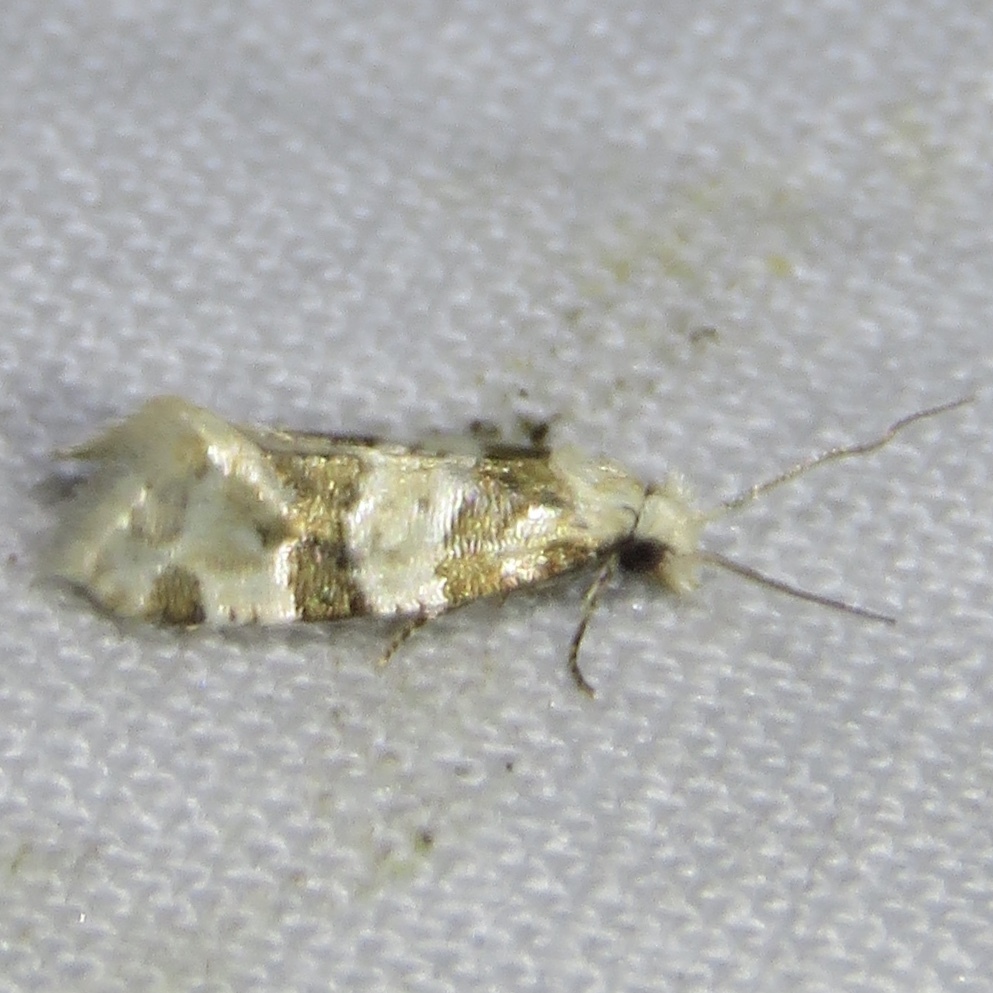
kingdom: Animalia
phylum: Arthropoda
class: Insecta
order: Lepidoptera
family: Tortricidae
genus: Aethes
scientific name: Aethes argentilimitana
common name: Silver-bordered aethes
